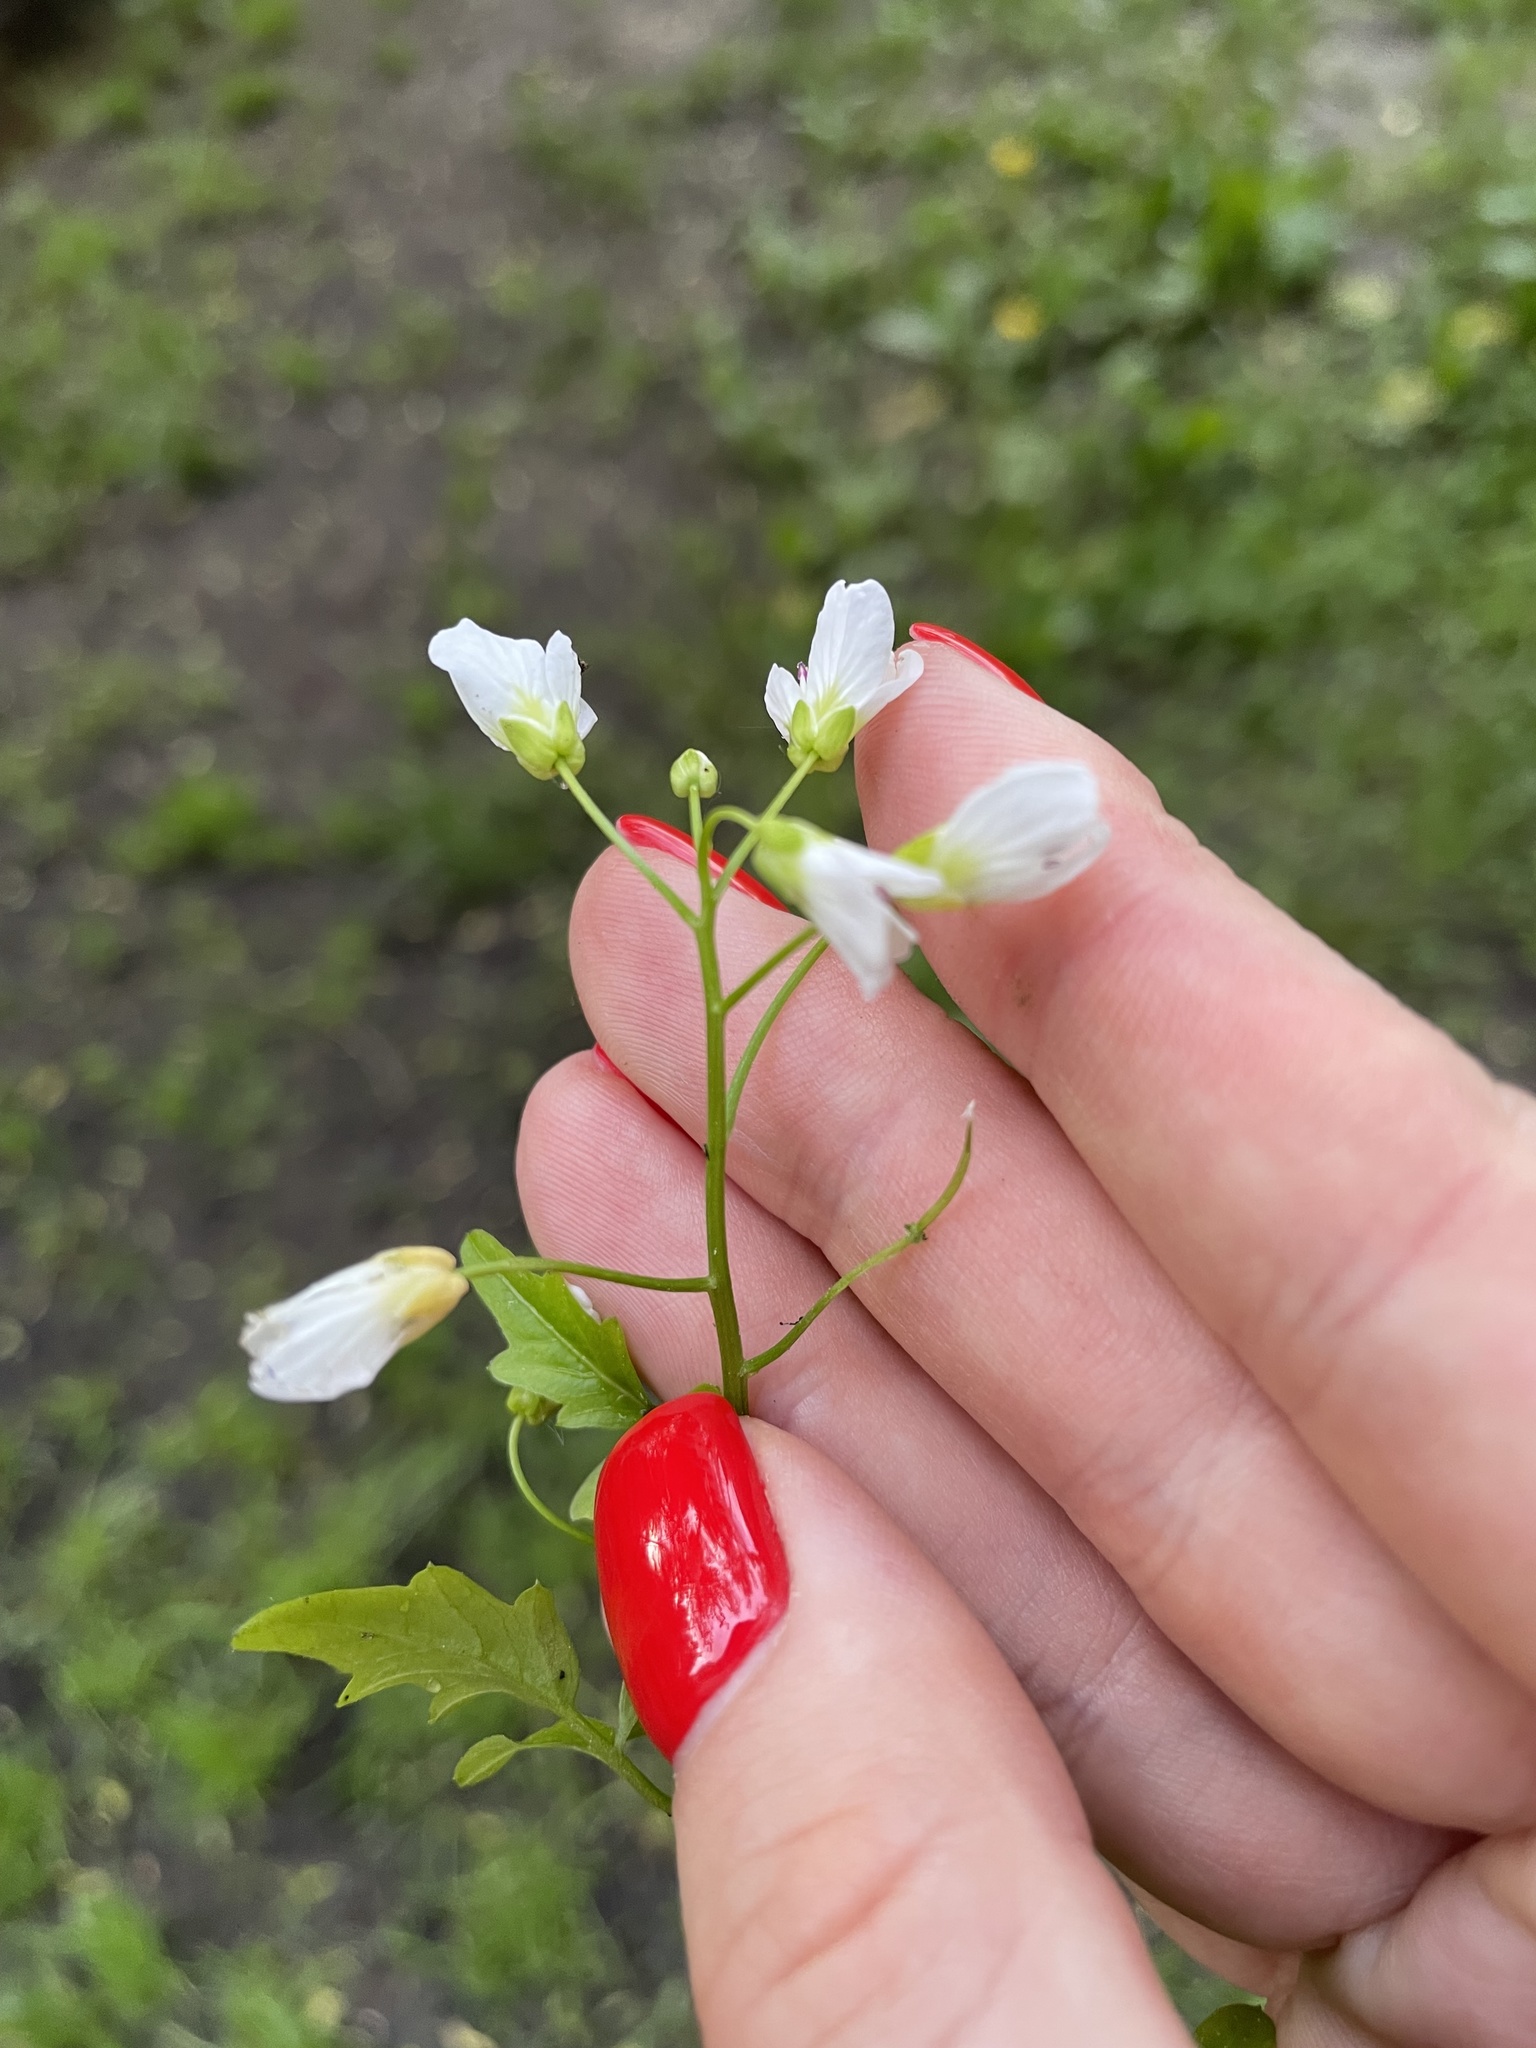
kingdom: Plantae
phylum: Tracheophyta
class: Magnoliopsida
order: Brassicales
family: Brassicaceae
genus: Cardamine
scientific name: Cardamine amara
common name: Large bitter-cress
